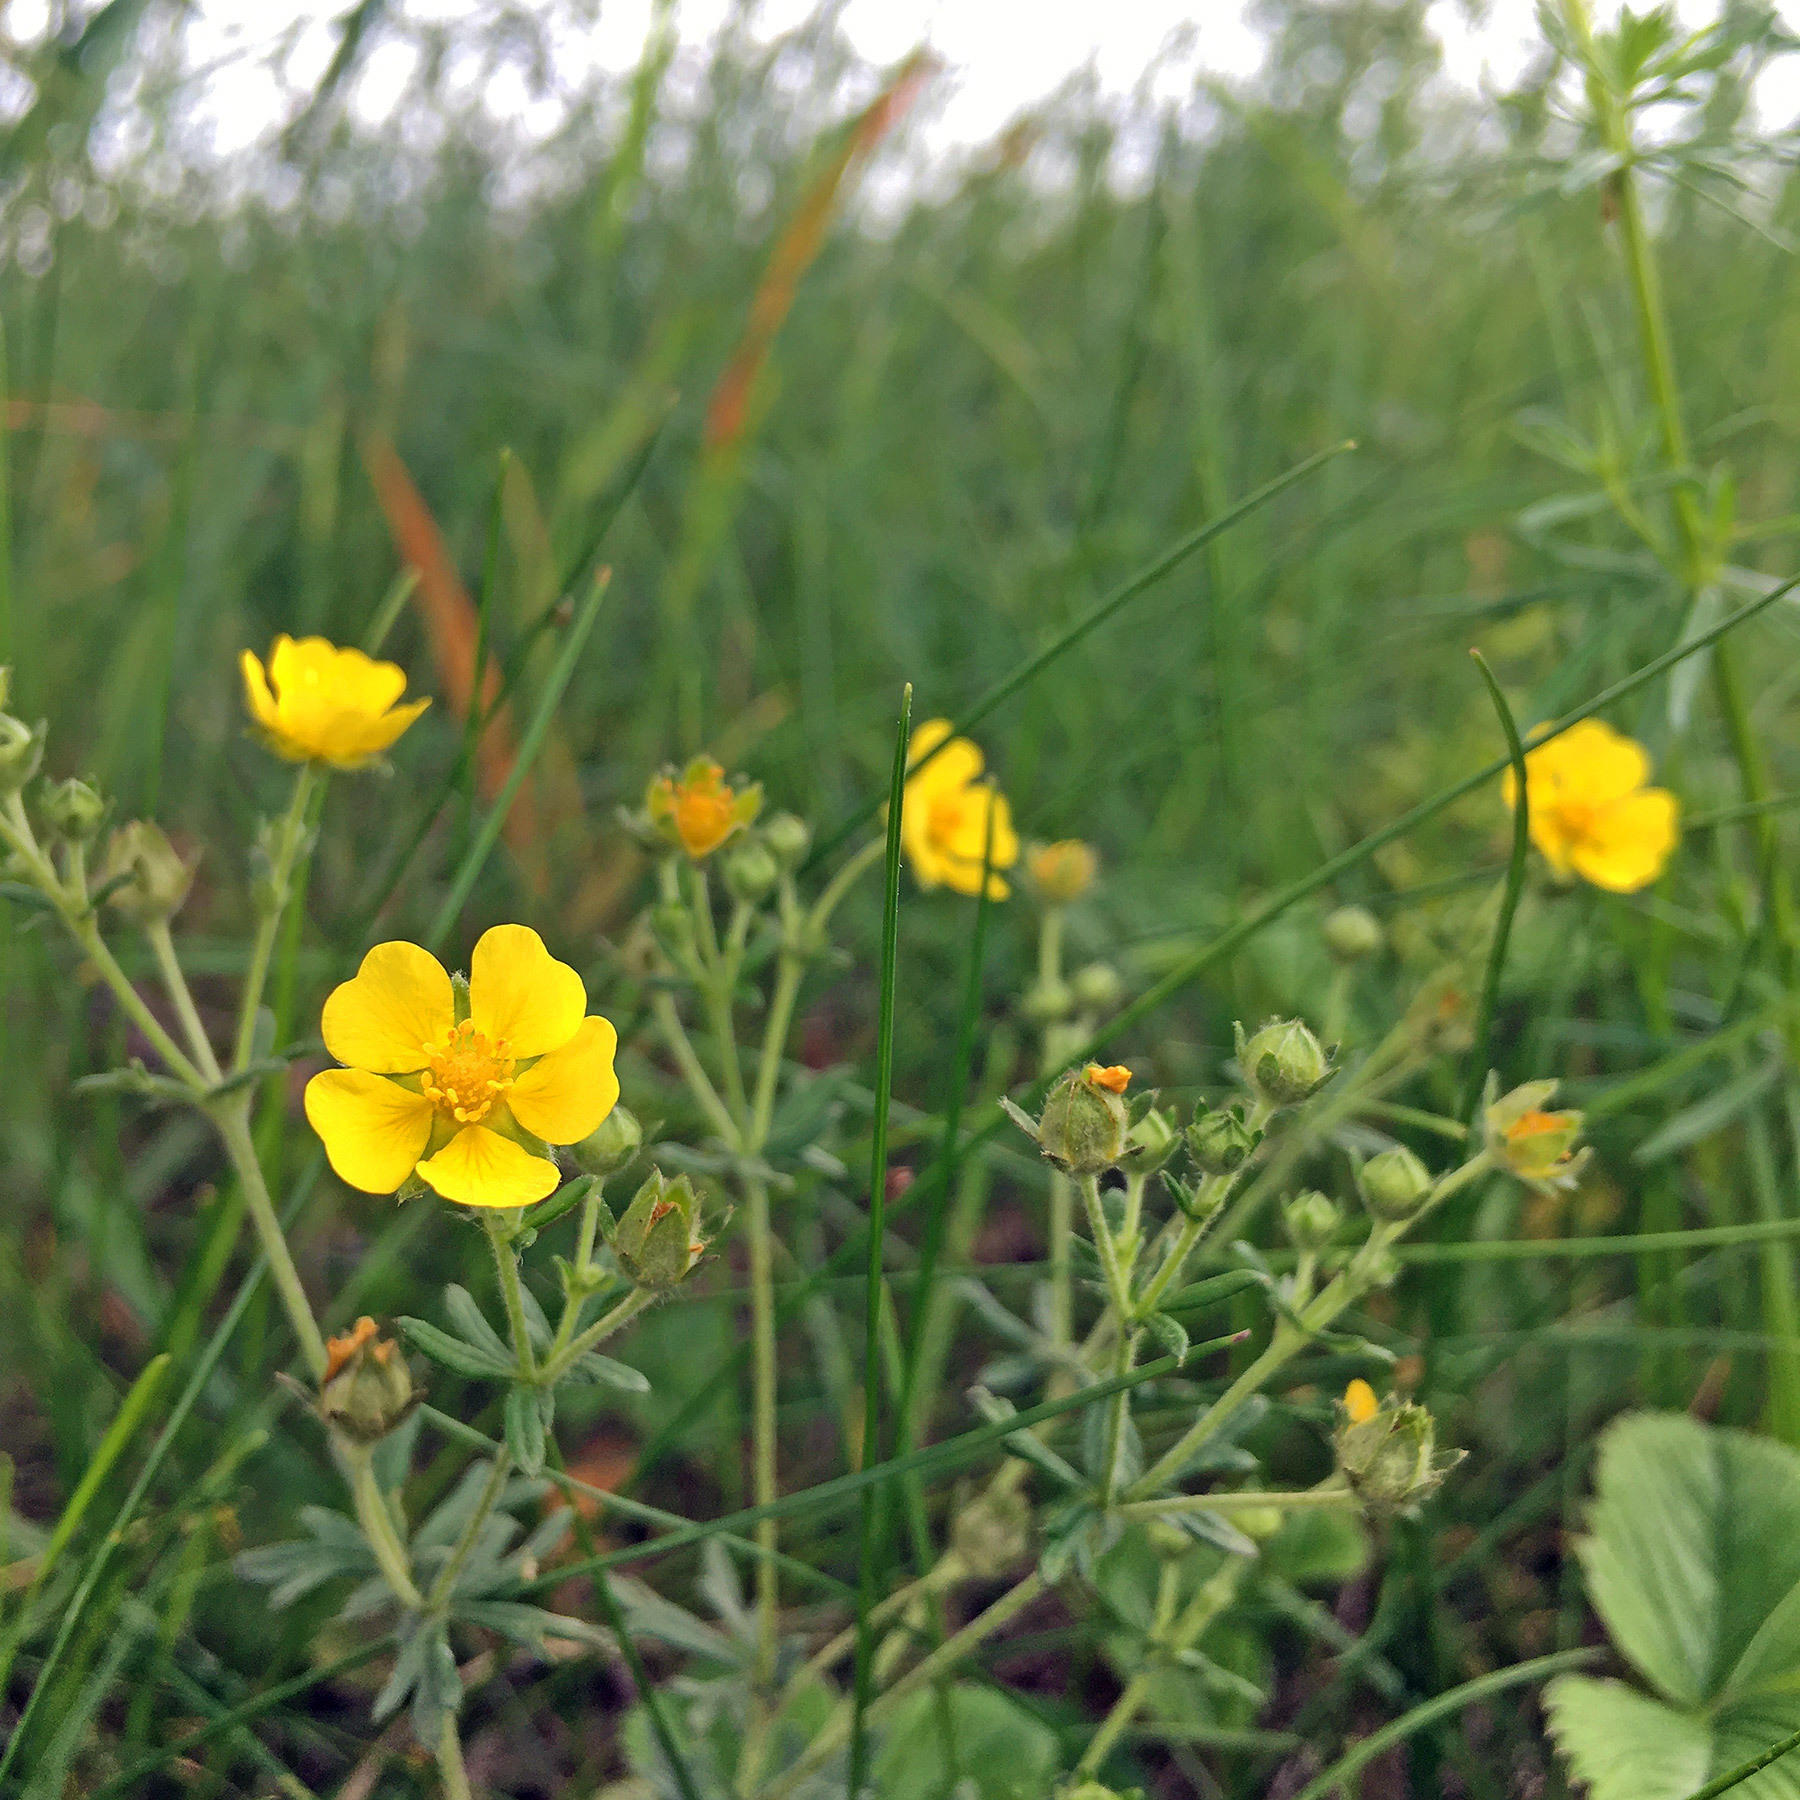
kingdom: Plantae
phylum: Tracheophyta
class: Magnoliopsida
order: Rosales
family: Rosaceae
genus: Potentilla
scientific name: Potentilla argentea
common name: Hoary cinquefoil
